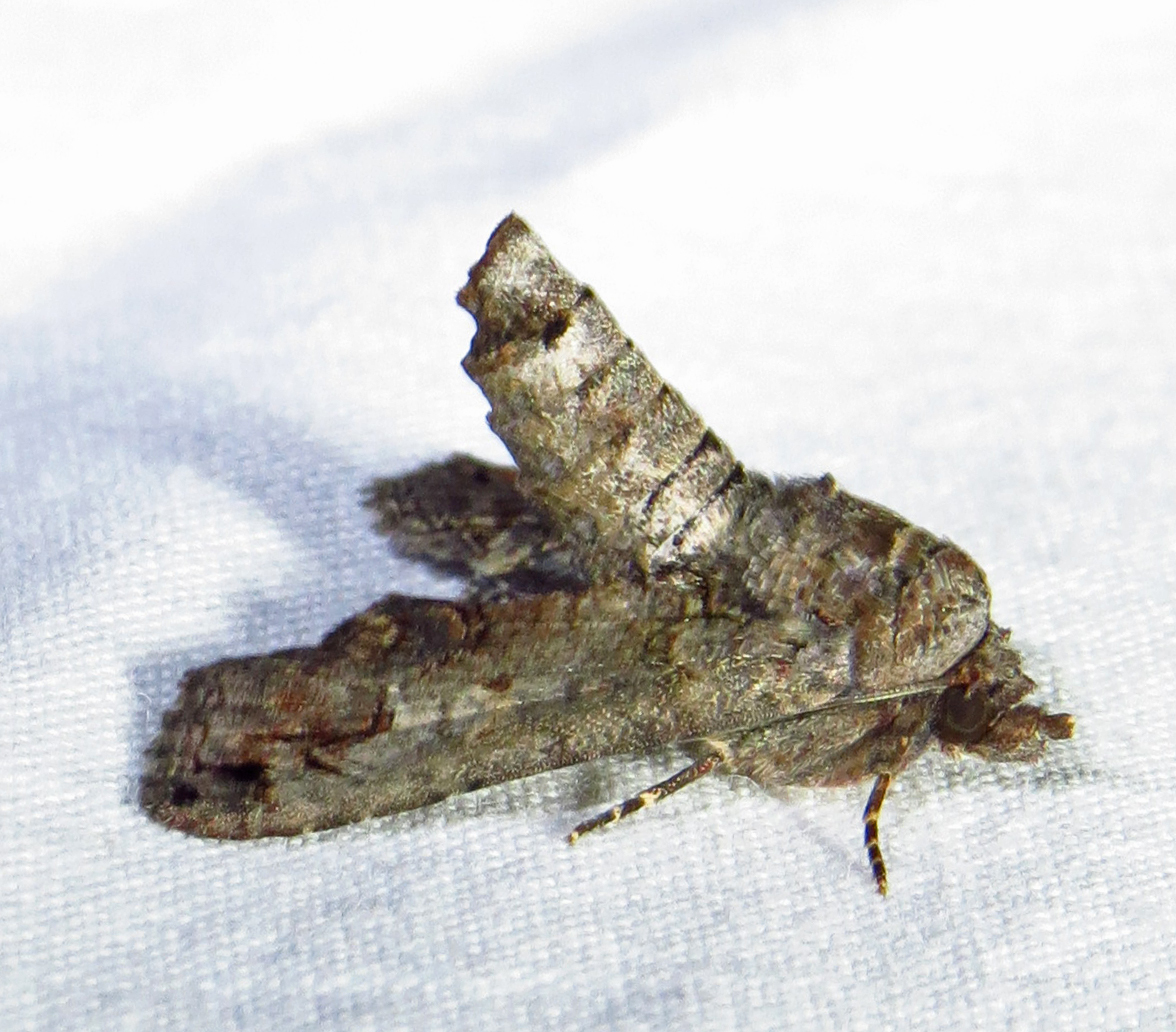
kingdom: Animalia
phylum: Arthropoda
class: Insecta
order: Lepidoptera
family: Euteliidae
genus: Paectes
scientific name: Paectes abrostoloides
